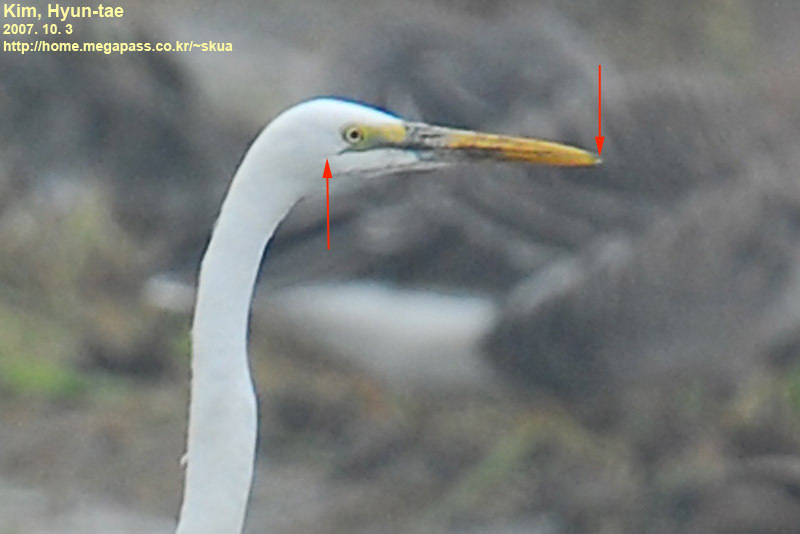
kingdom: Animalia
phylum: Chordata
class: Aves
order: Pelecaniformes
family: Ardeidae
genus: Ardea
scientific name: Ardea alba
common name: Great egret
